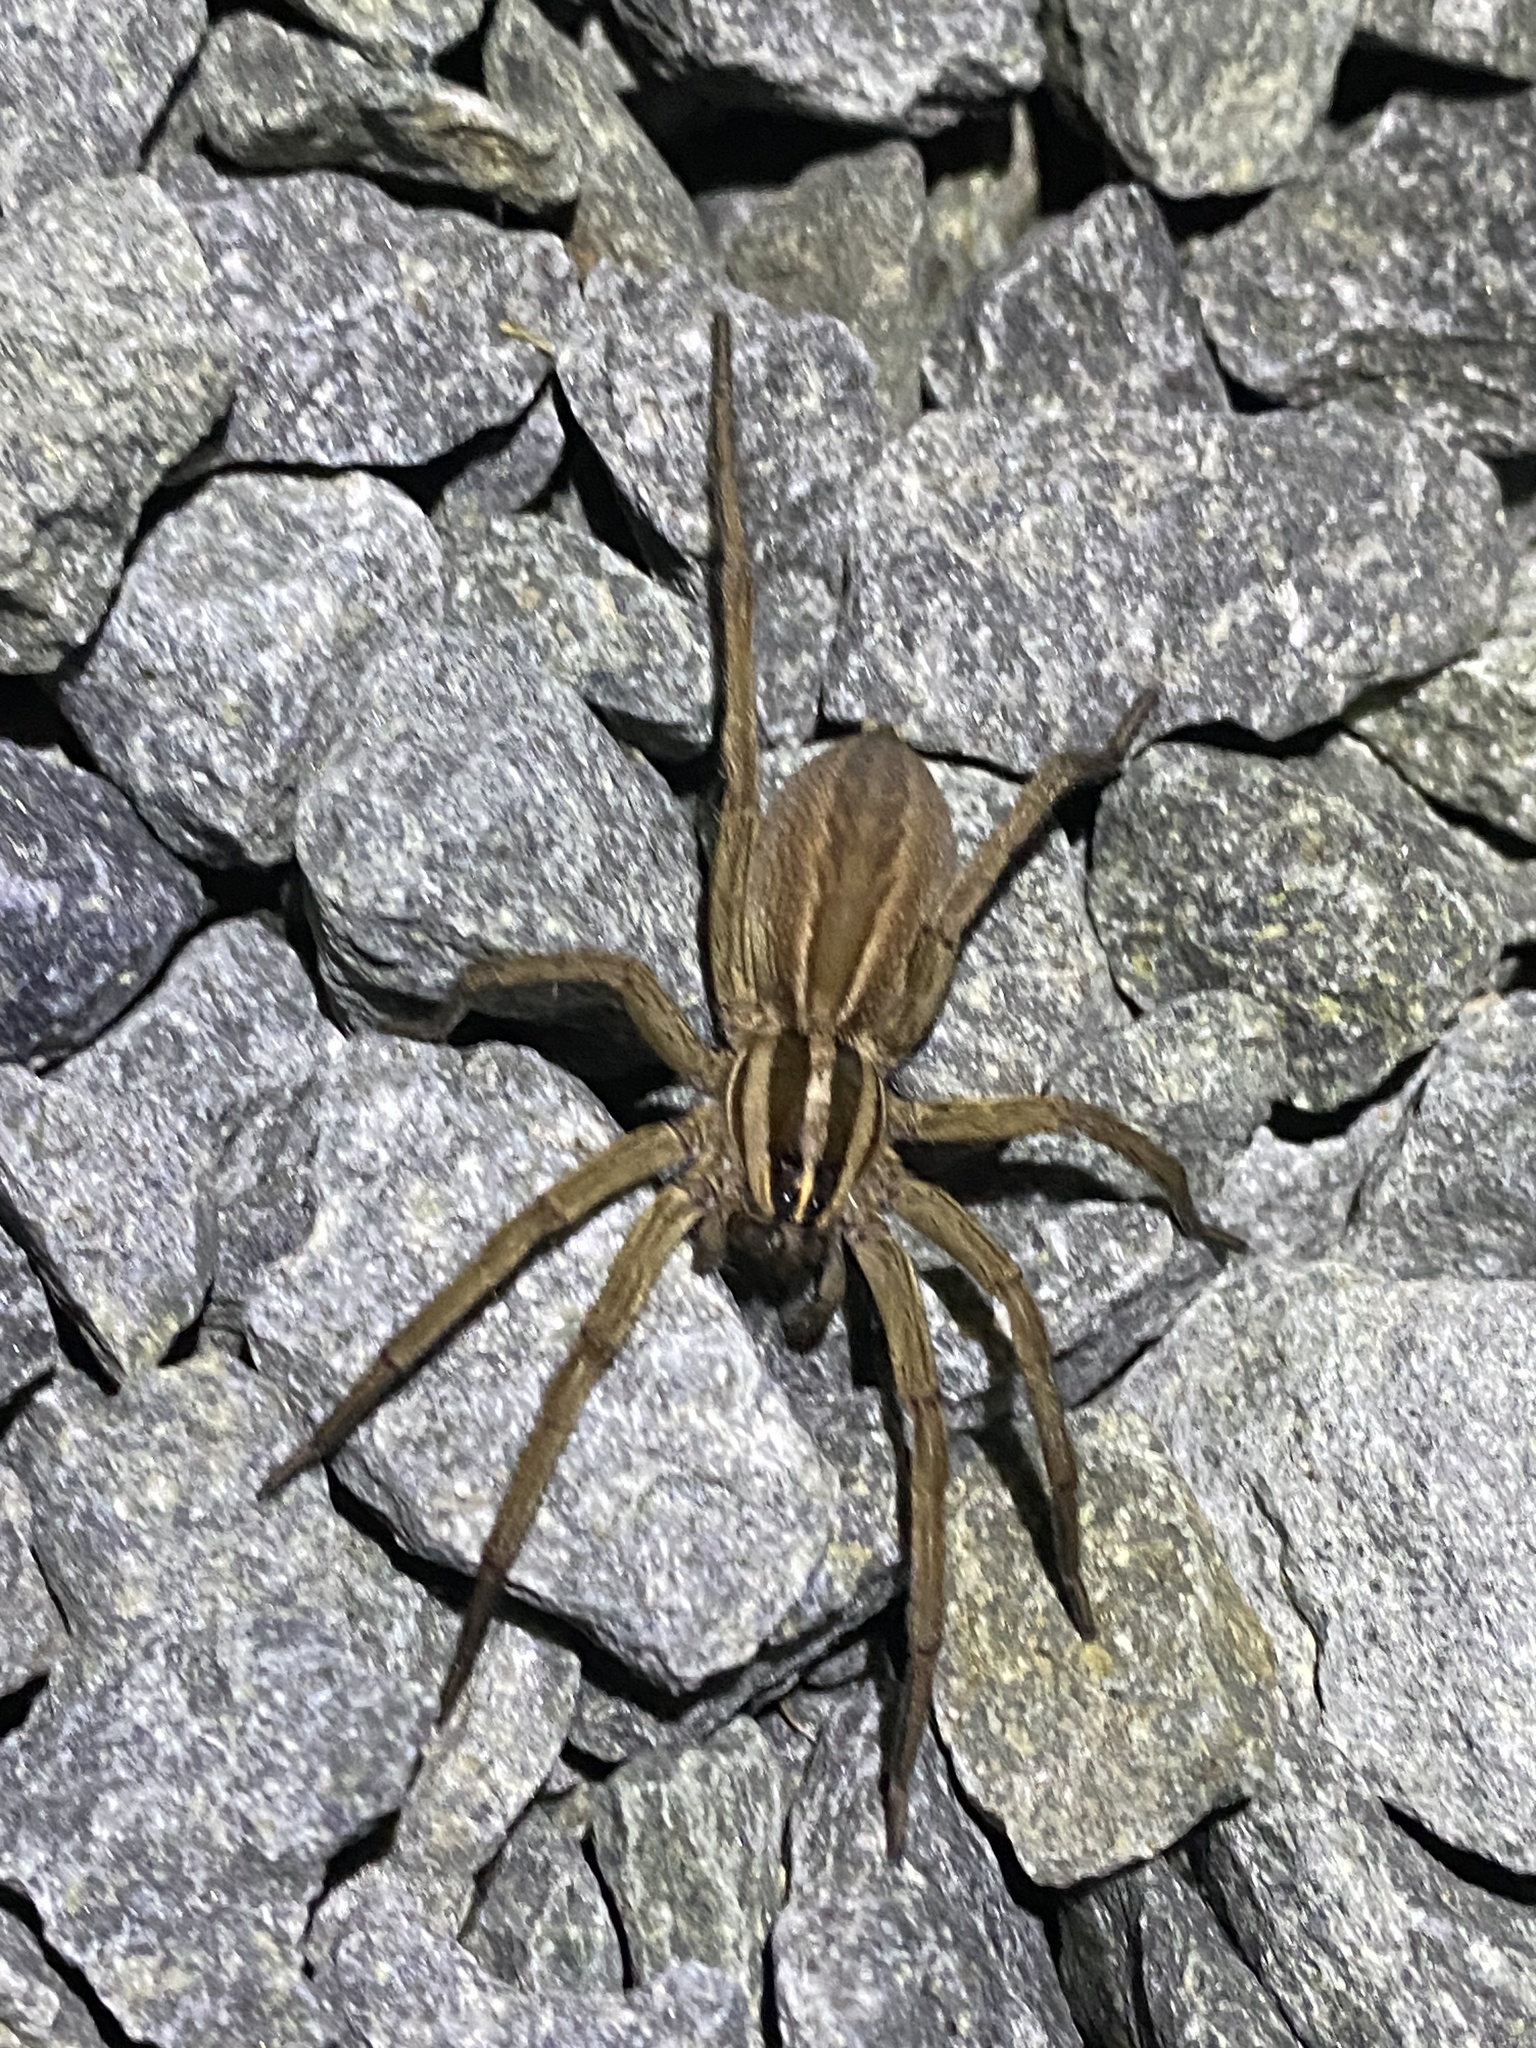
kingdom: Animalia
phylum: Arthropoda
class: Arachnida
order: Araneae
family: Lycosidae
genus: Rabidosa
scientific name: Rabidosa rabida
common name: Rabid wolf spider
